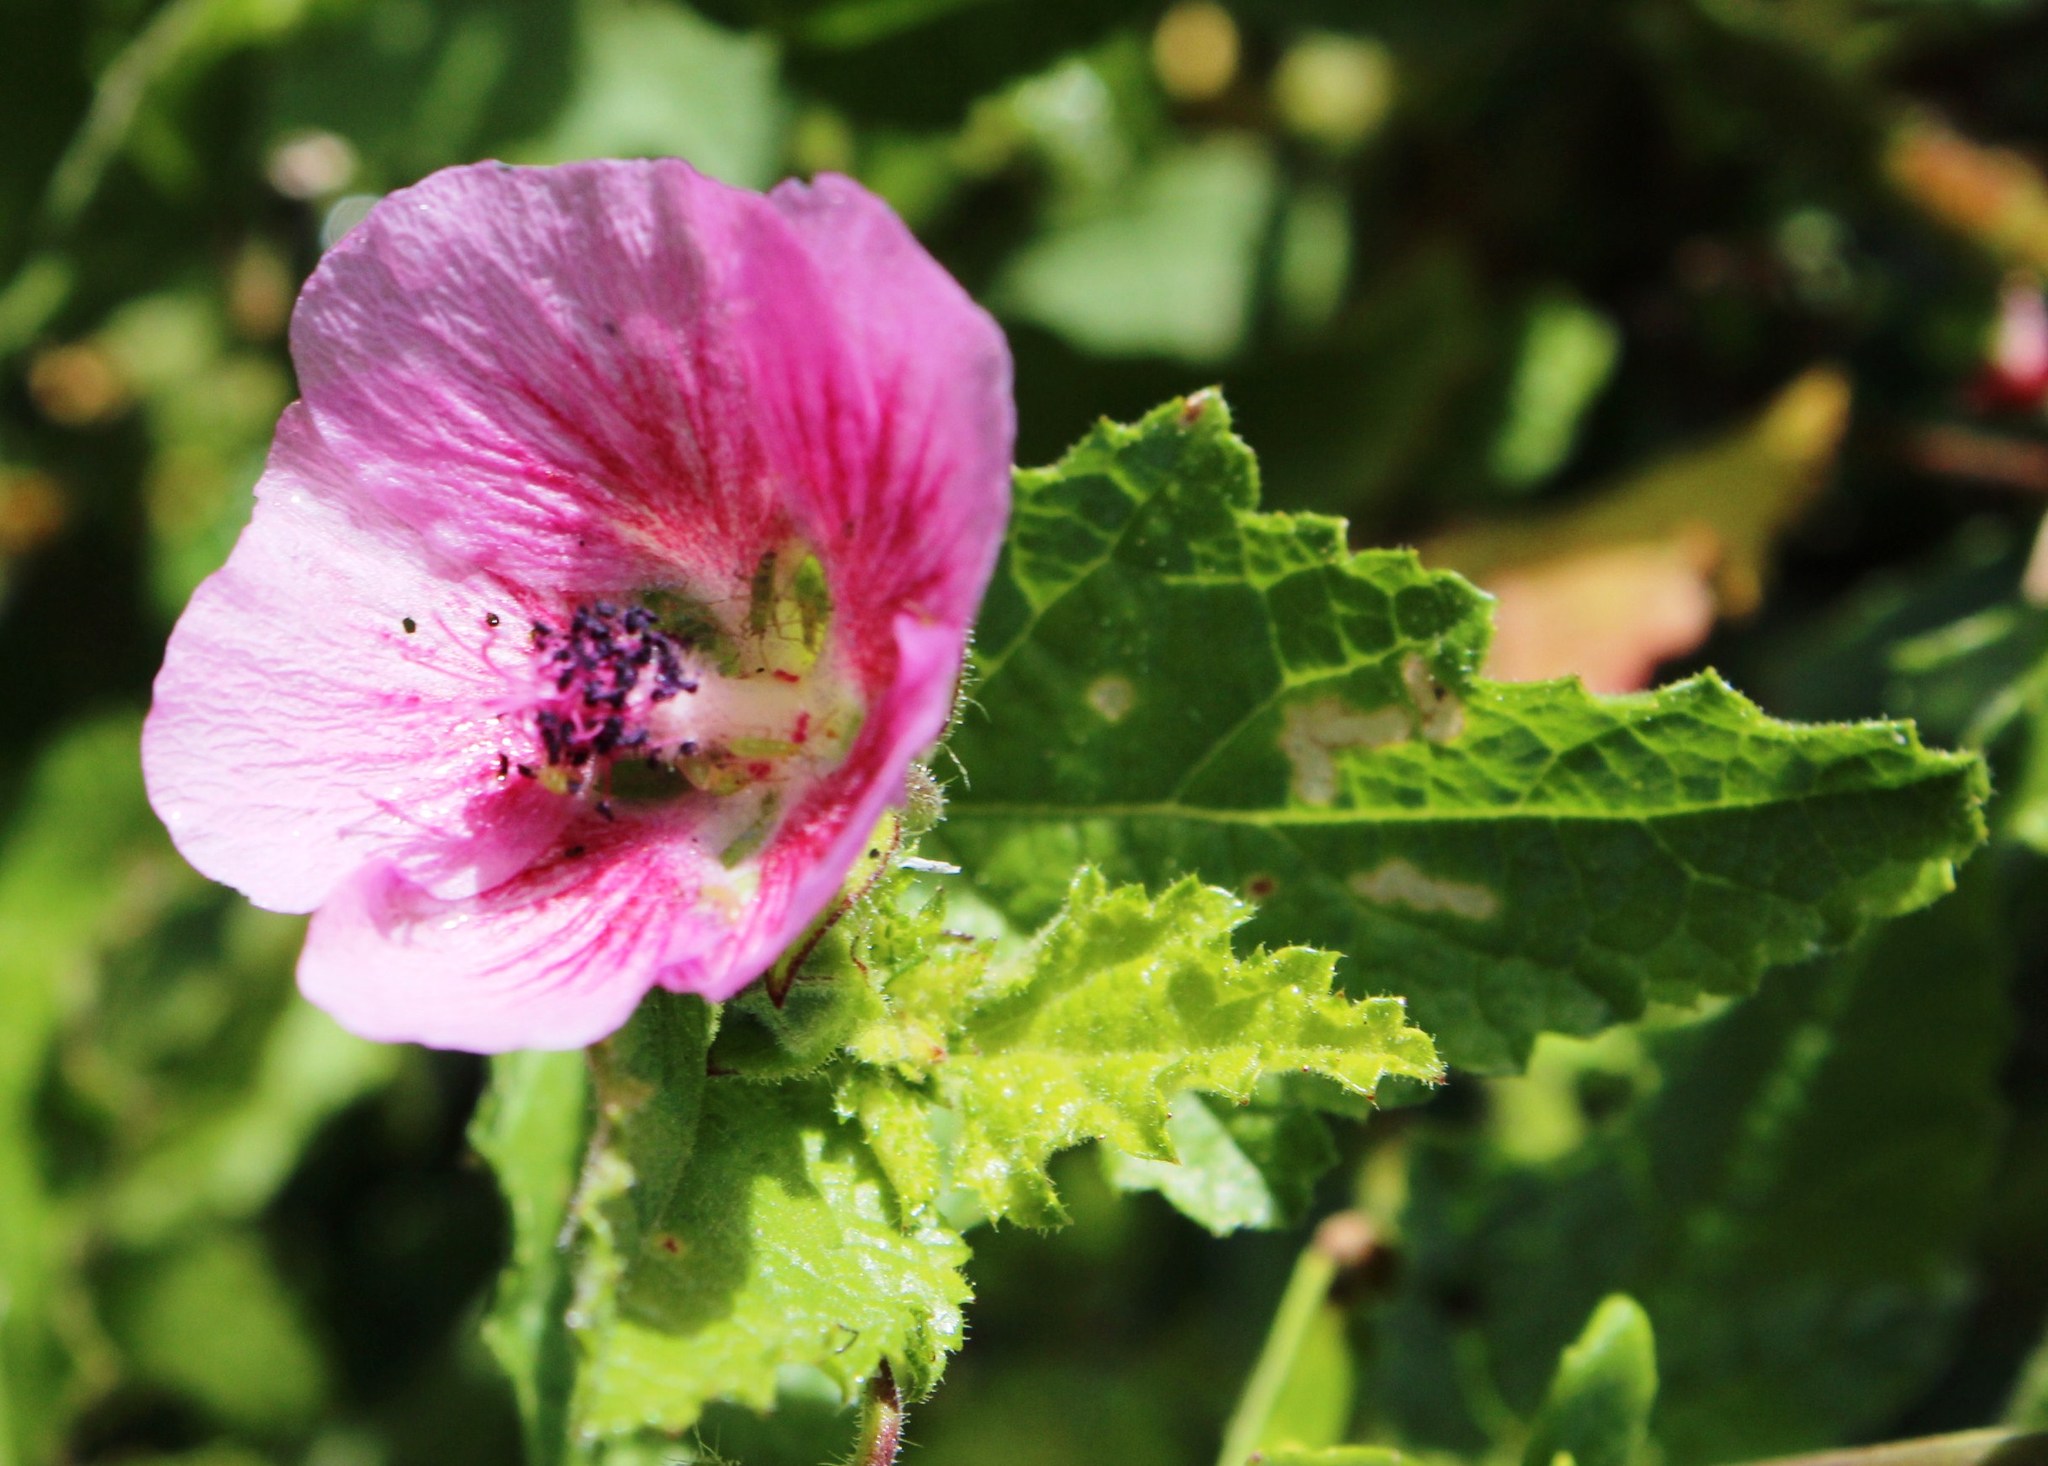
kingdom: Plantae
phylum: Tracheophyta
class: Magnoliopsida
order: Malvales
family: Malvaceae
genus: Anisodontea
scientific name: Anisodontea scabrosa
